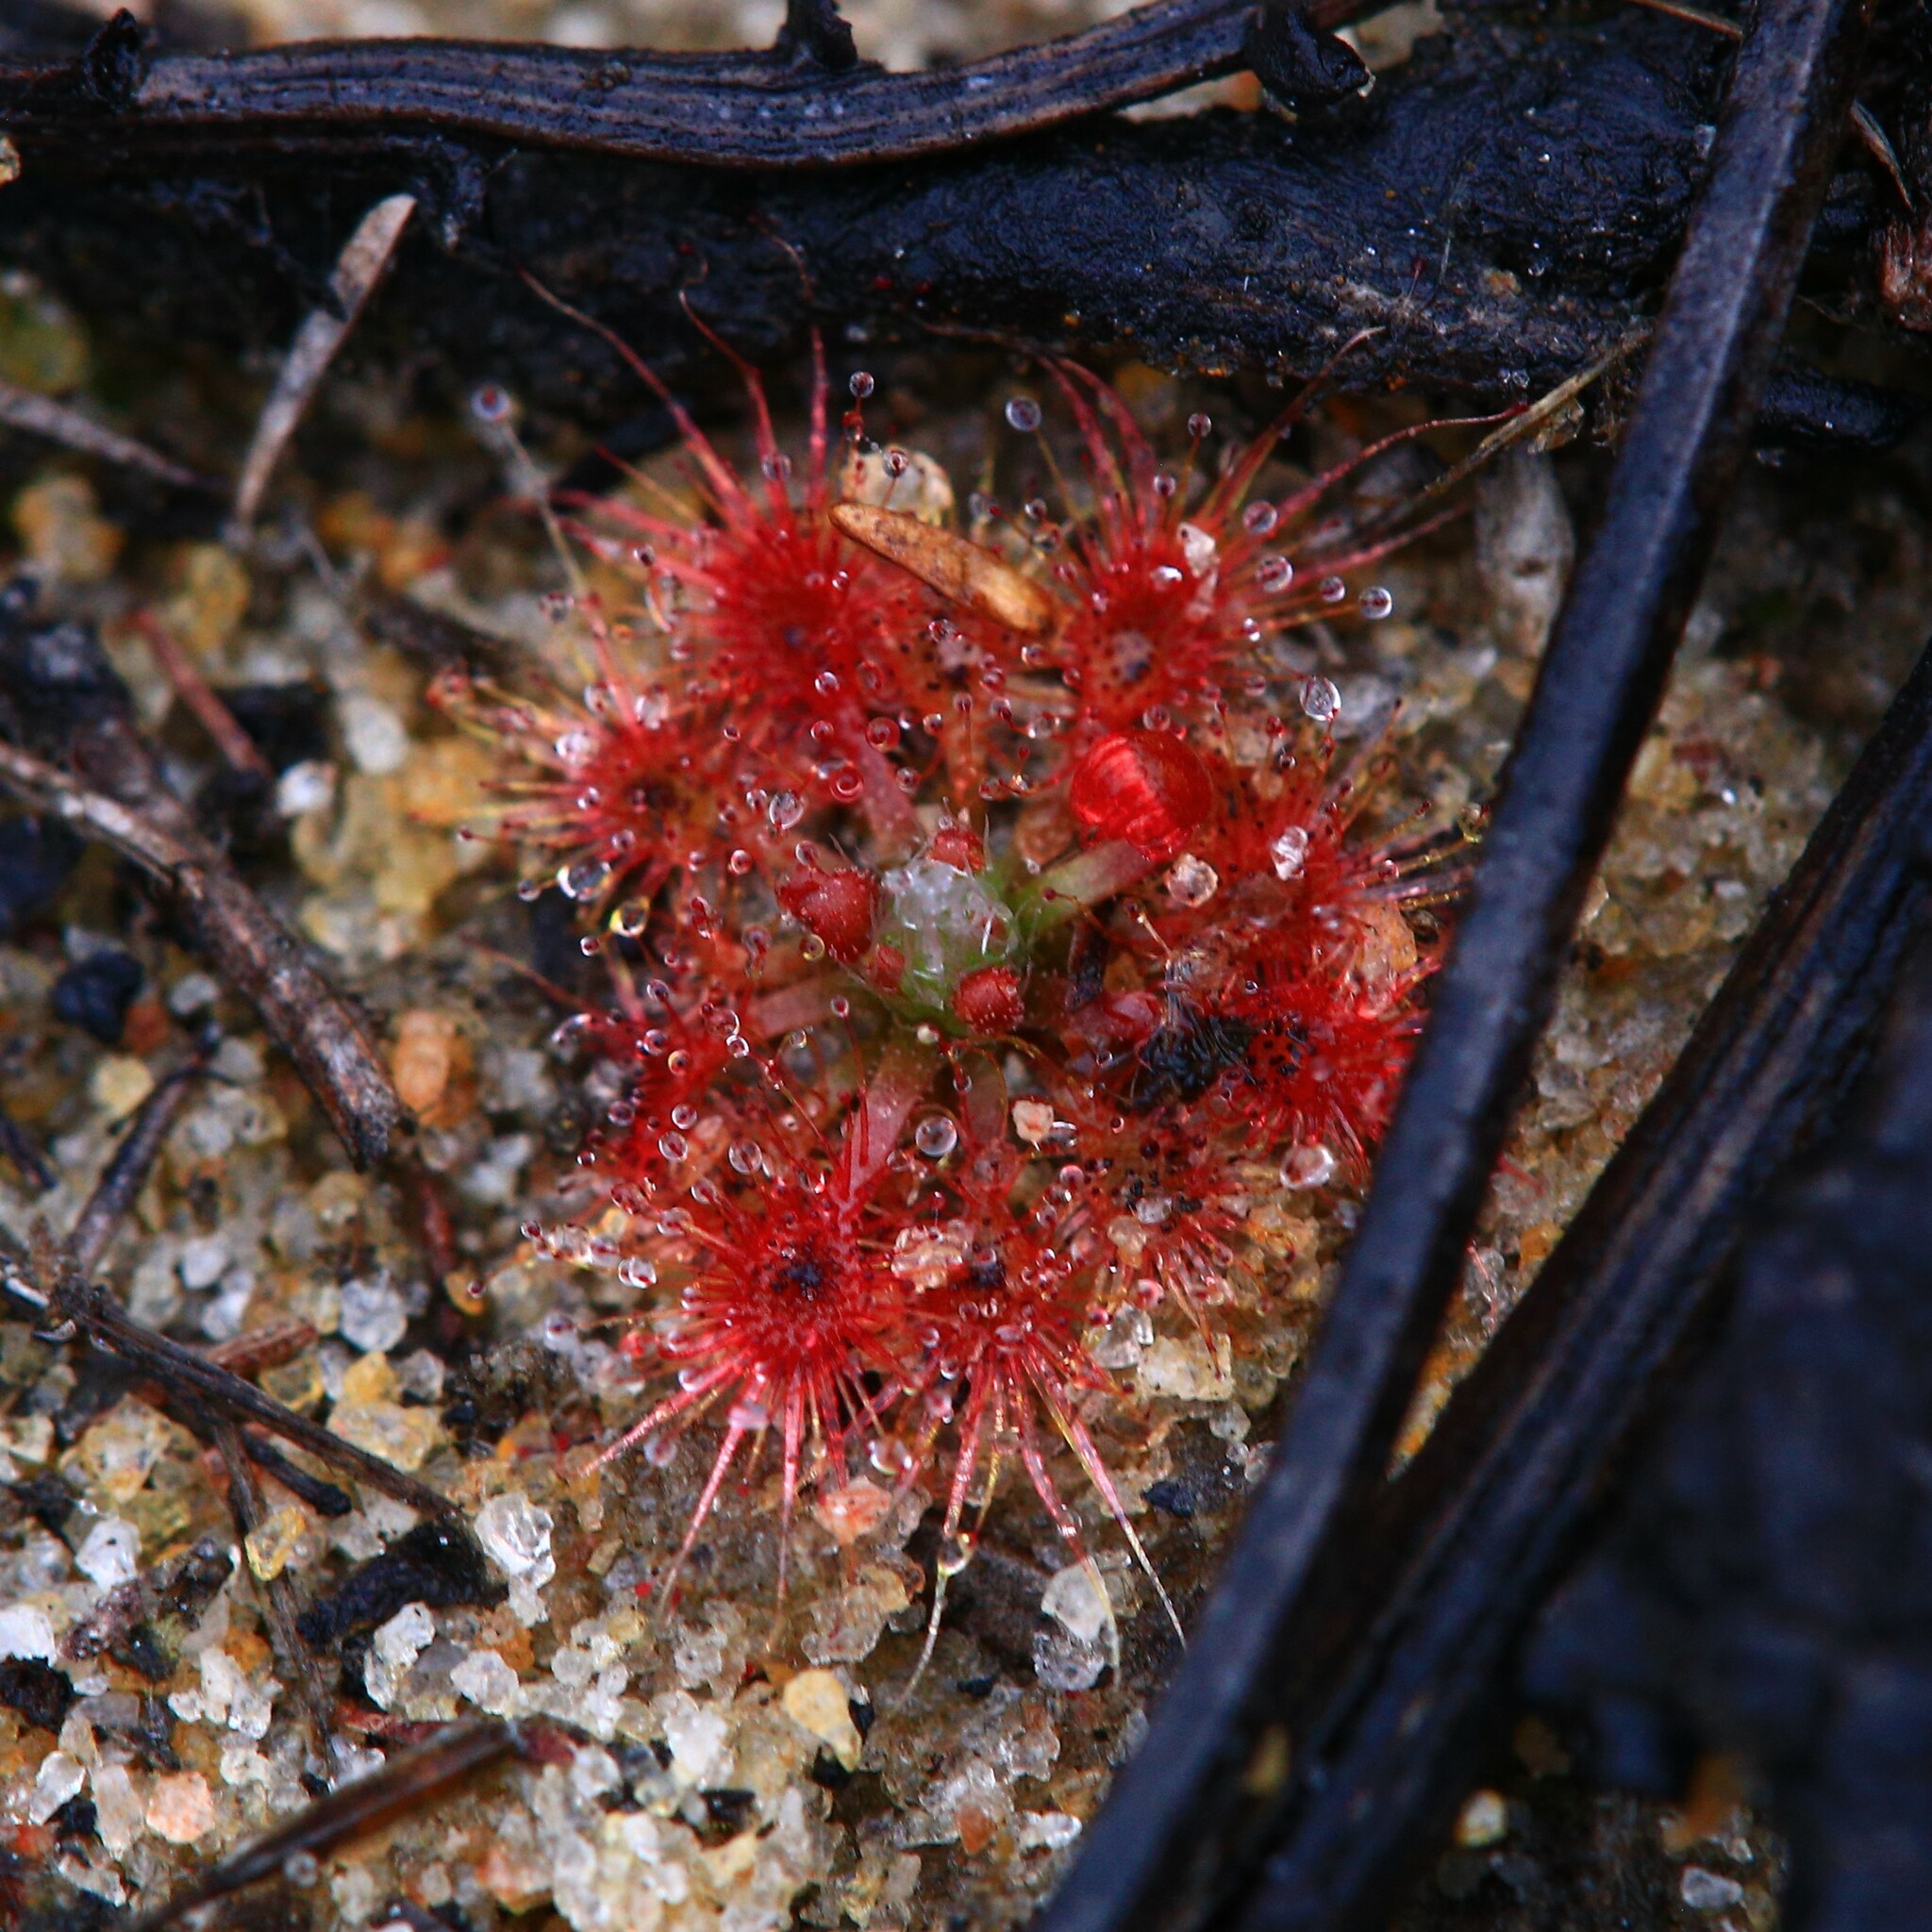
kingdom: Plantae
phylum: Tracheophyta
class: Magnoliopsida
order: Caryophyllales
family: Droseraceae
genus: Drosera
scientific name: Drosera nitidula
